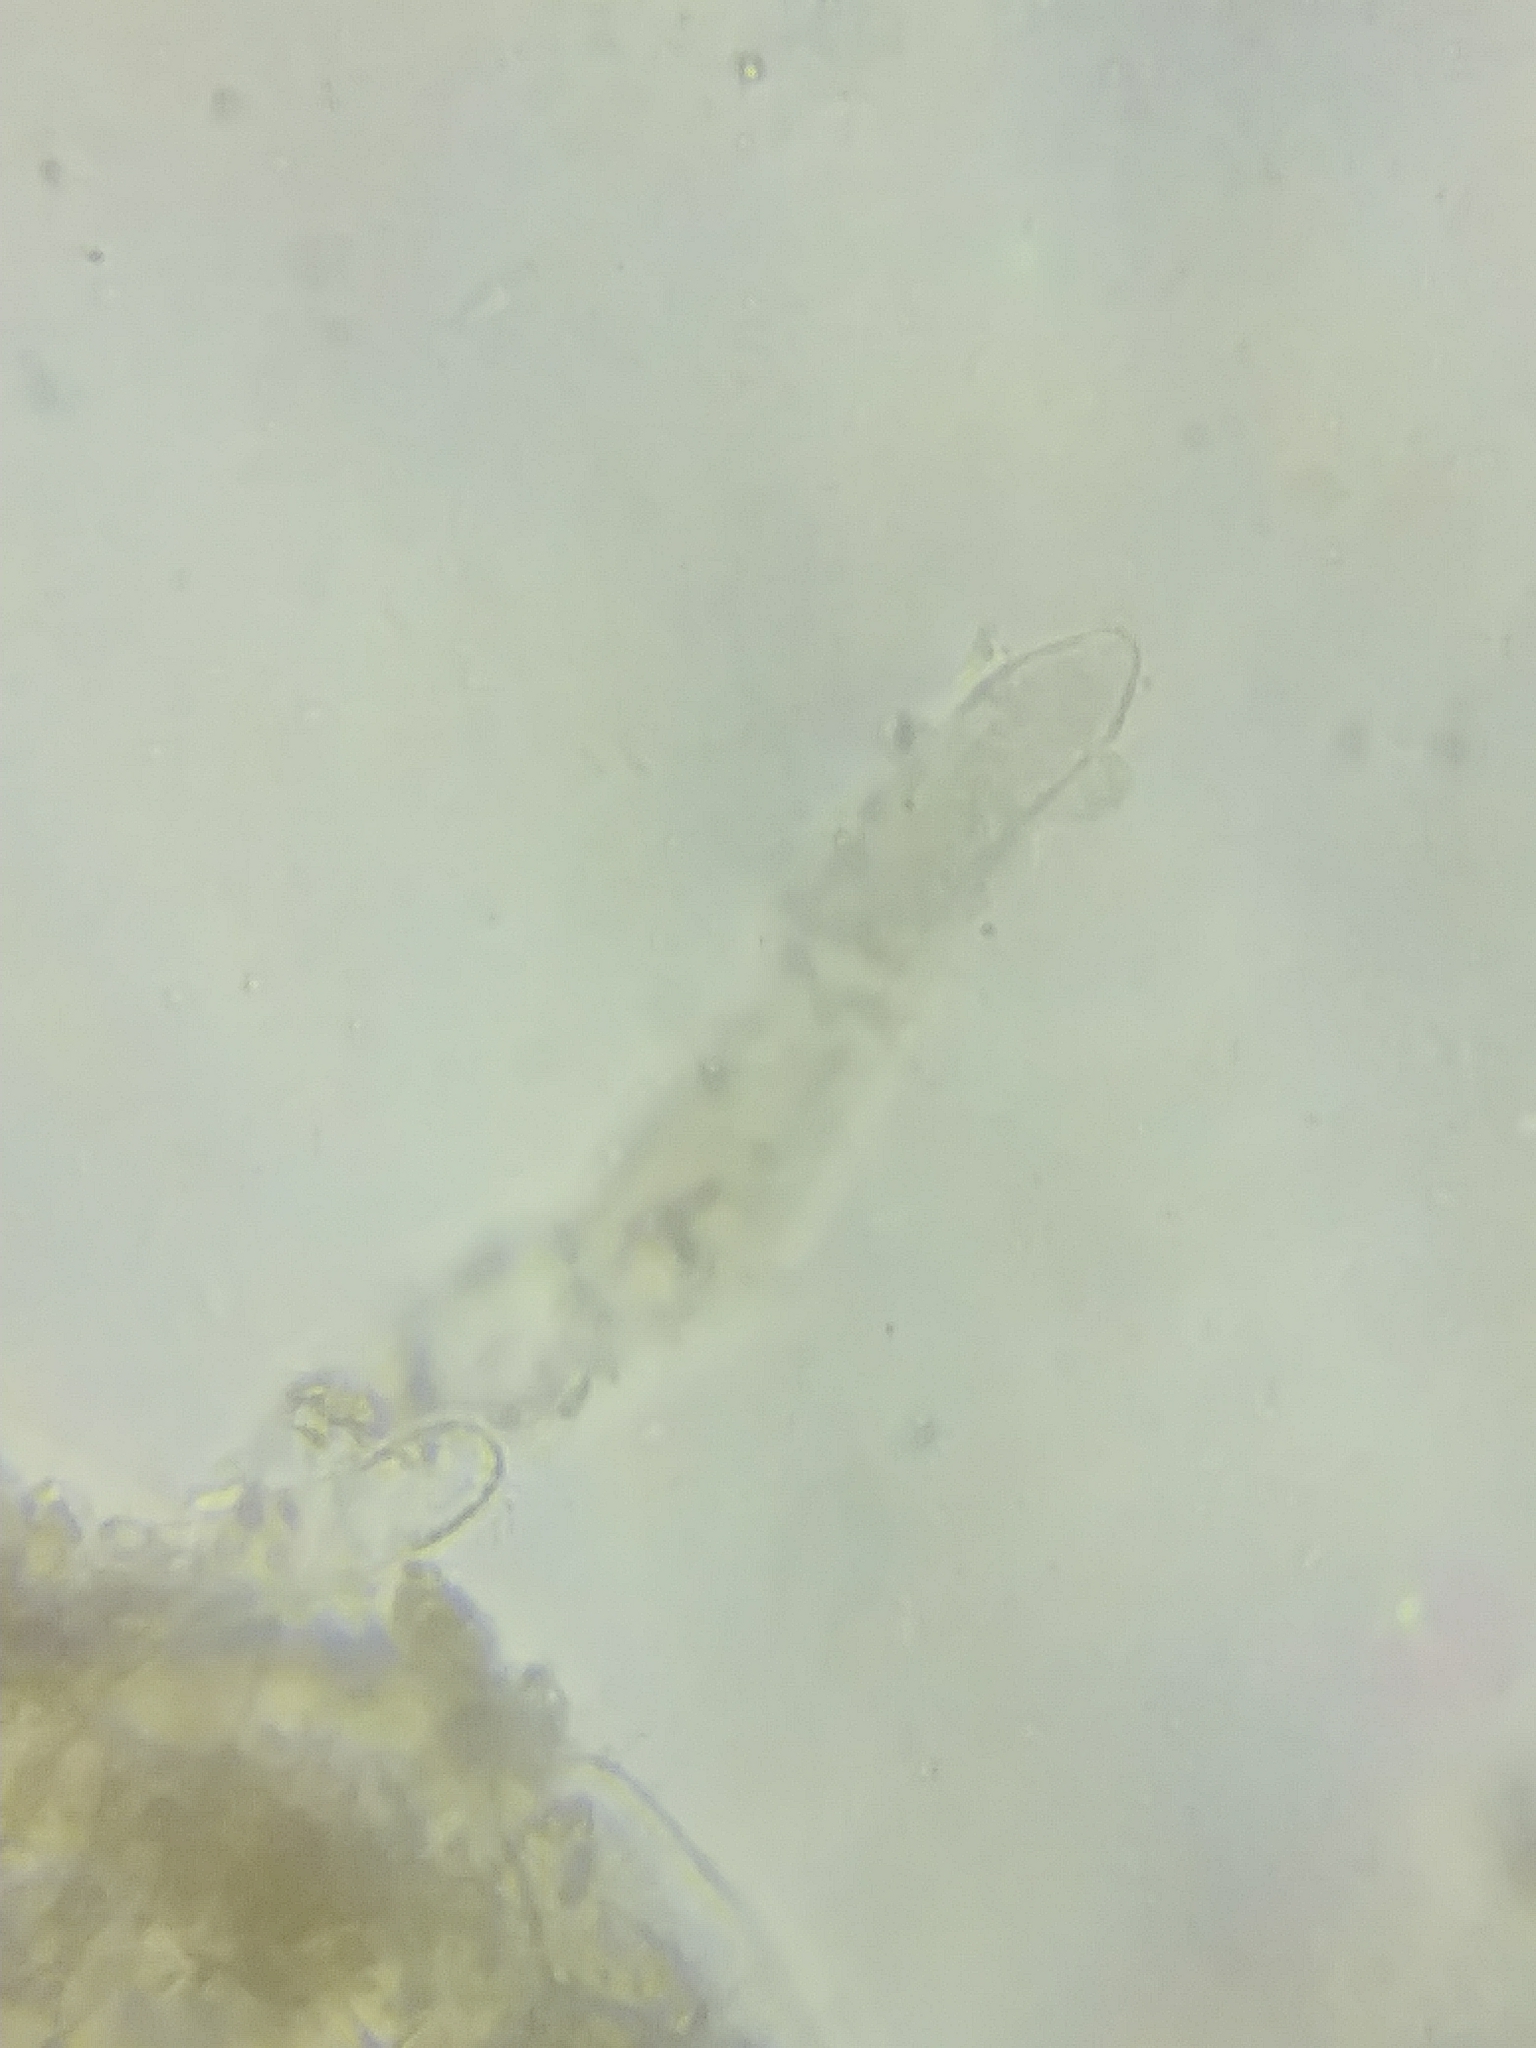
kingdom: Fungi
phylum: Ascomycota
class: Pezizomycetes
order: Pezizales
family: Discinaceae
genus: Gyromitra
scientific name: Gyromitra leucoxantha
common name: Fishtail cup
